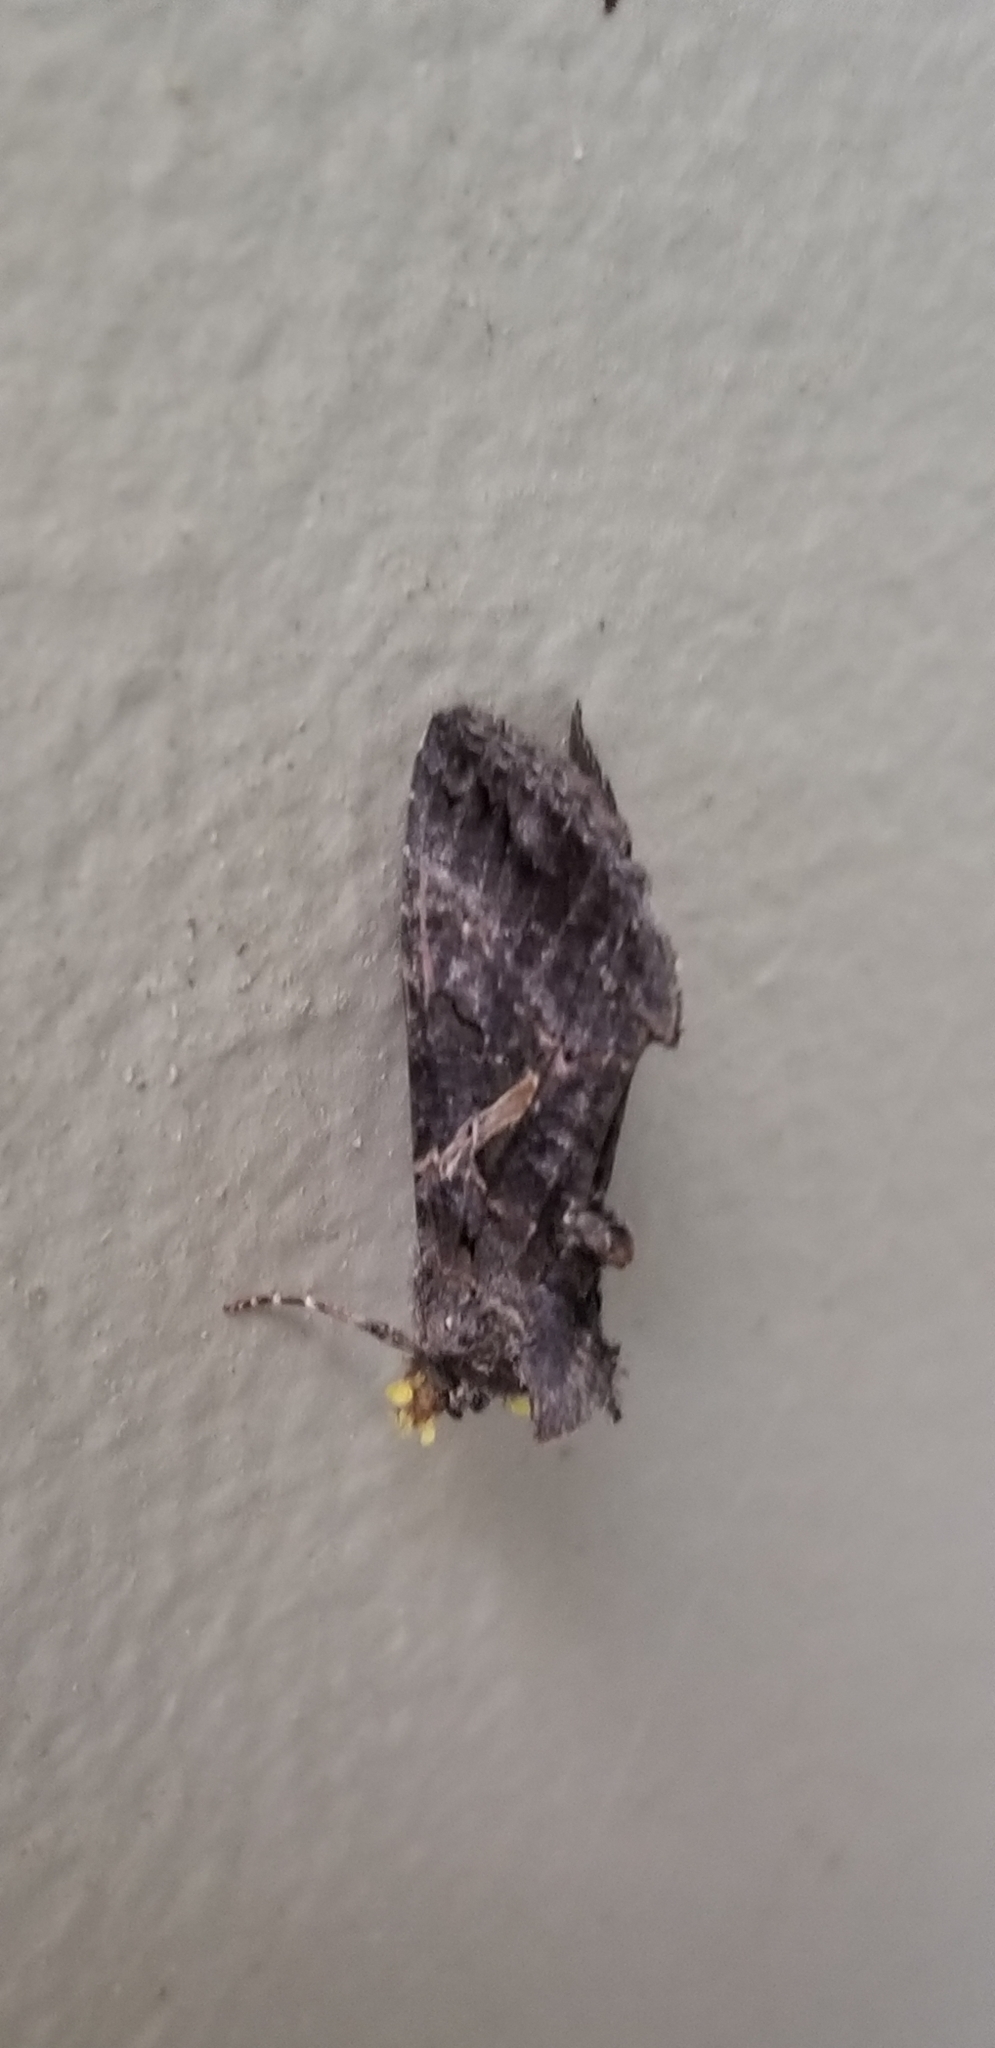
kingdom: Animalia
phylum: Arthropoda
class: Insecta
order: Lepidoptera
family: Noctuidae
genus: Ctenoplusia
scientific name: Ctenoplusia oxygramma
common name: Sharp-stigma looper moth
